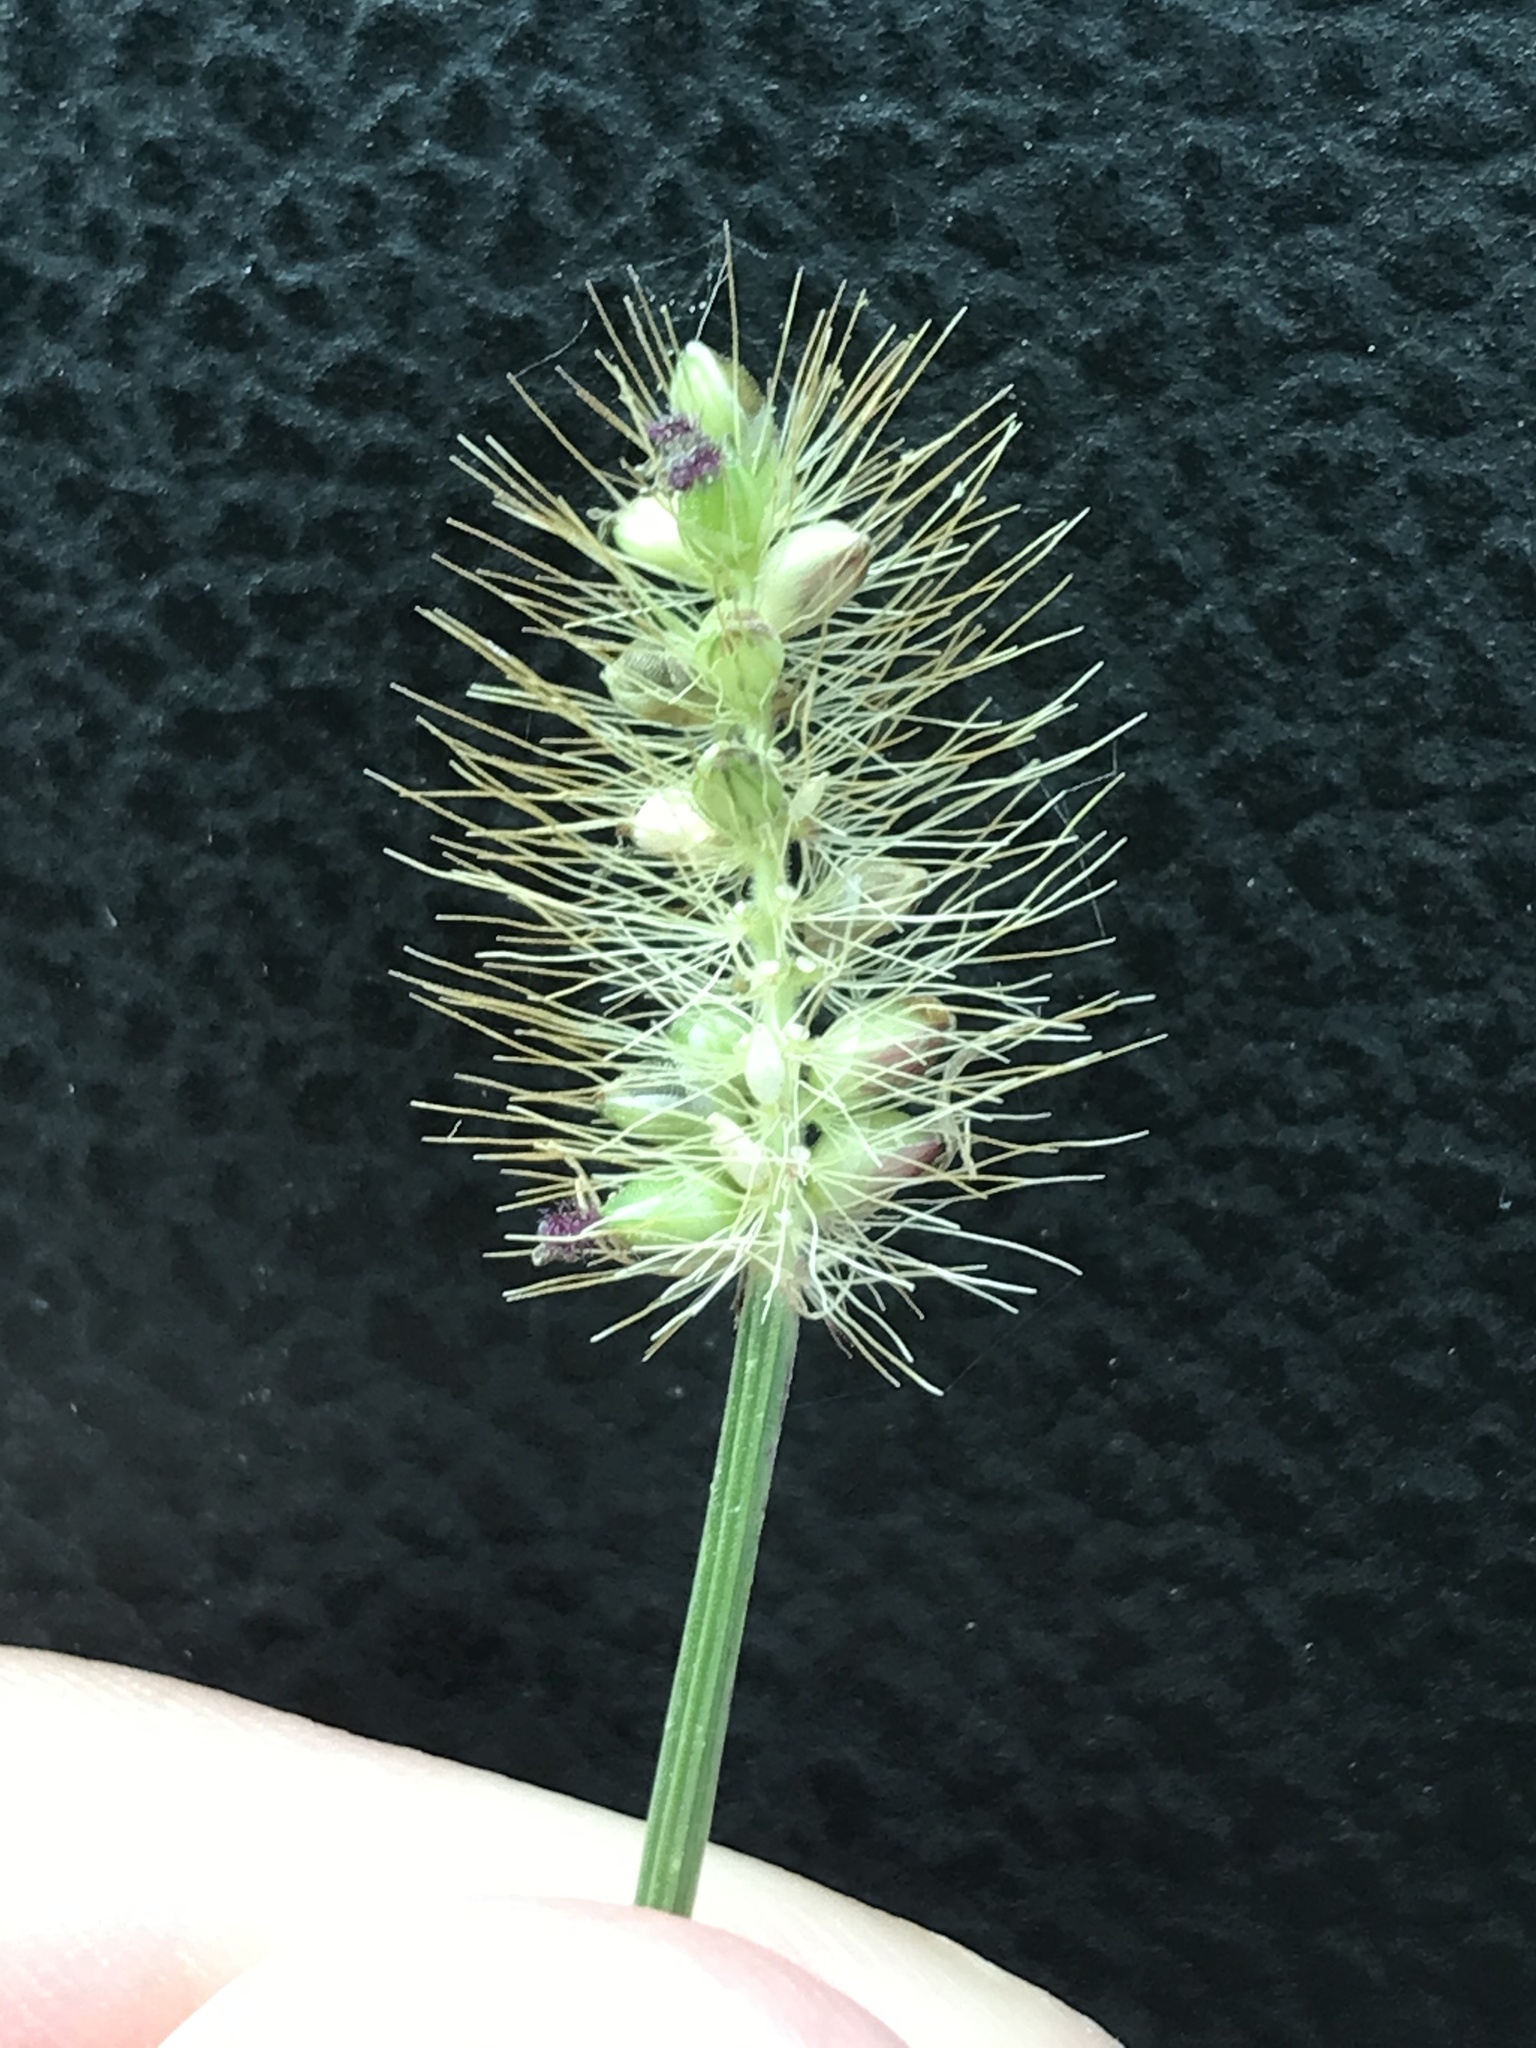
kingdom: Plantae
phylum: Tracheophyta
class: Liliopsida
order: Poales
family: Poaceae
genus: Setaria
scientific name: Setaria parviflora
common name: Knotroot bristle-grass
